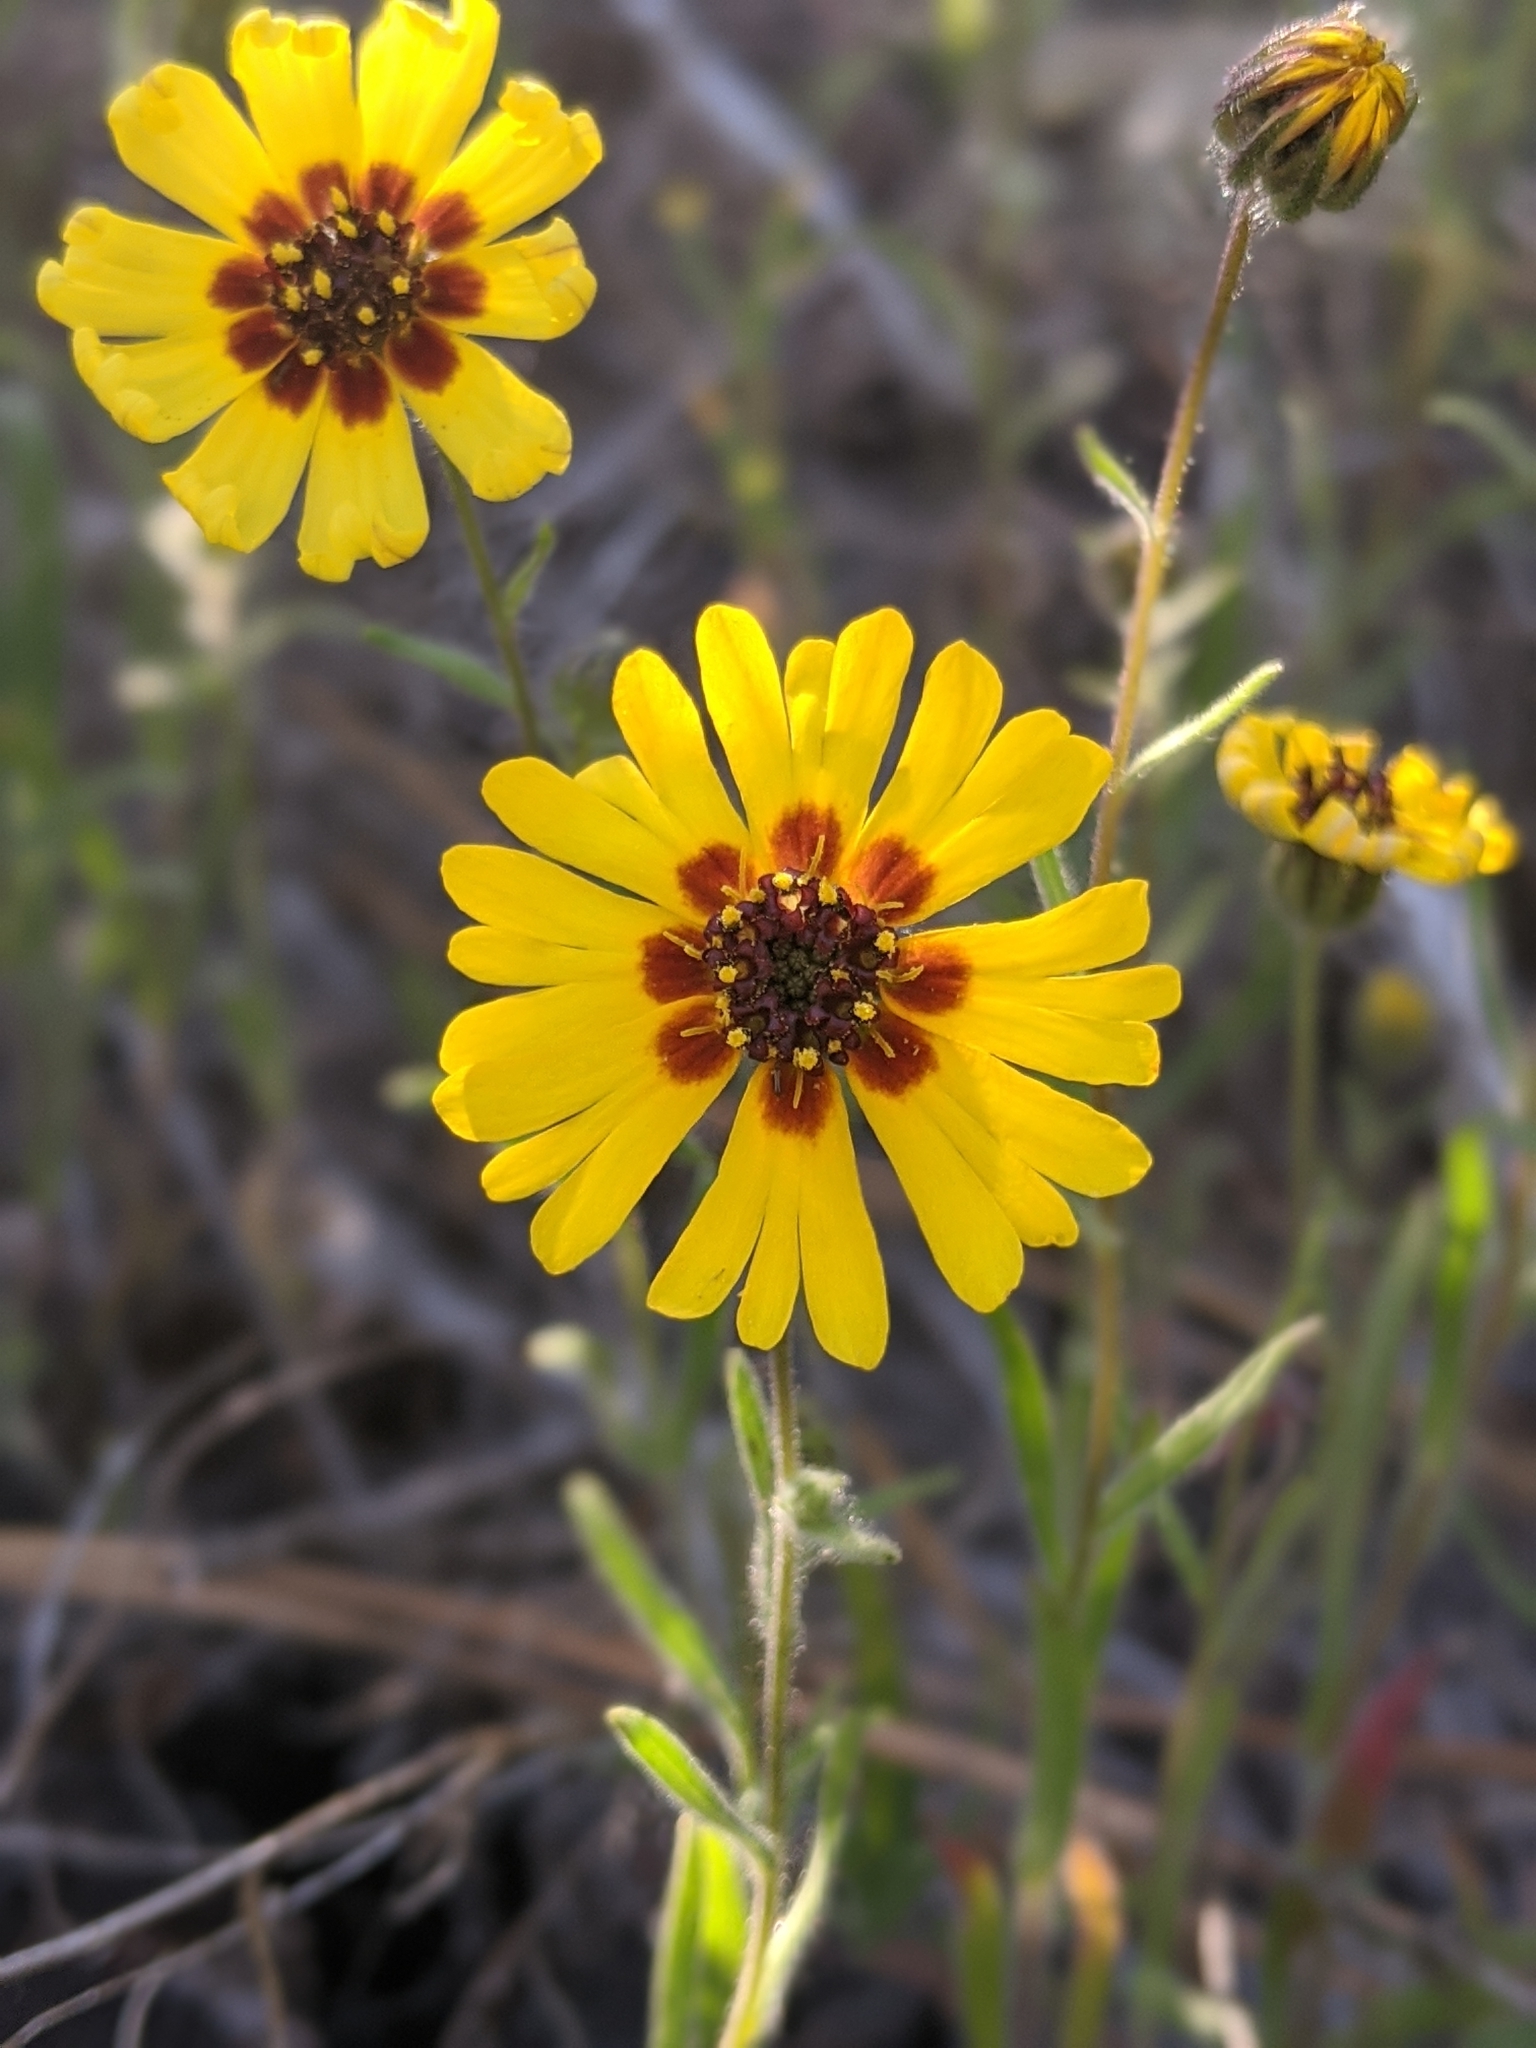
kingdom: Plantae
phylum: Tracheophyta
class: Magnoliopsida
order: Asterales
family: Asteraceae
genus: Madia
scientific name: Madia elegans
